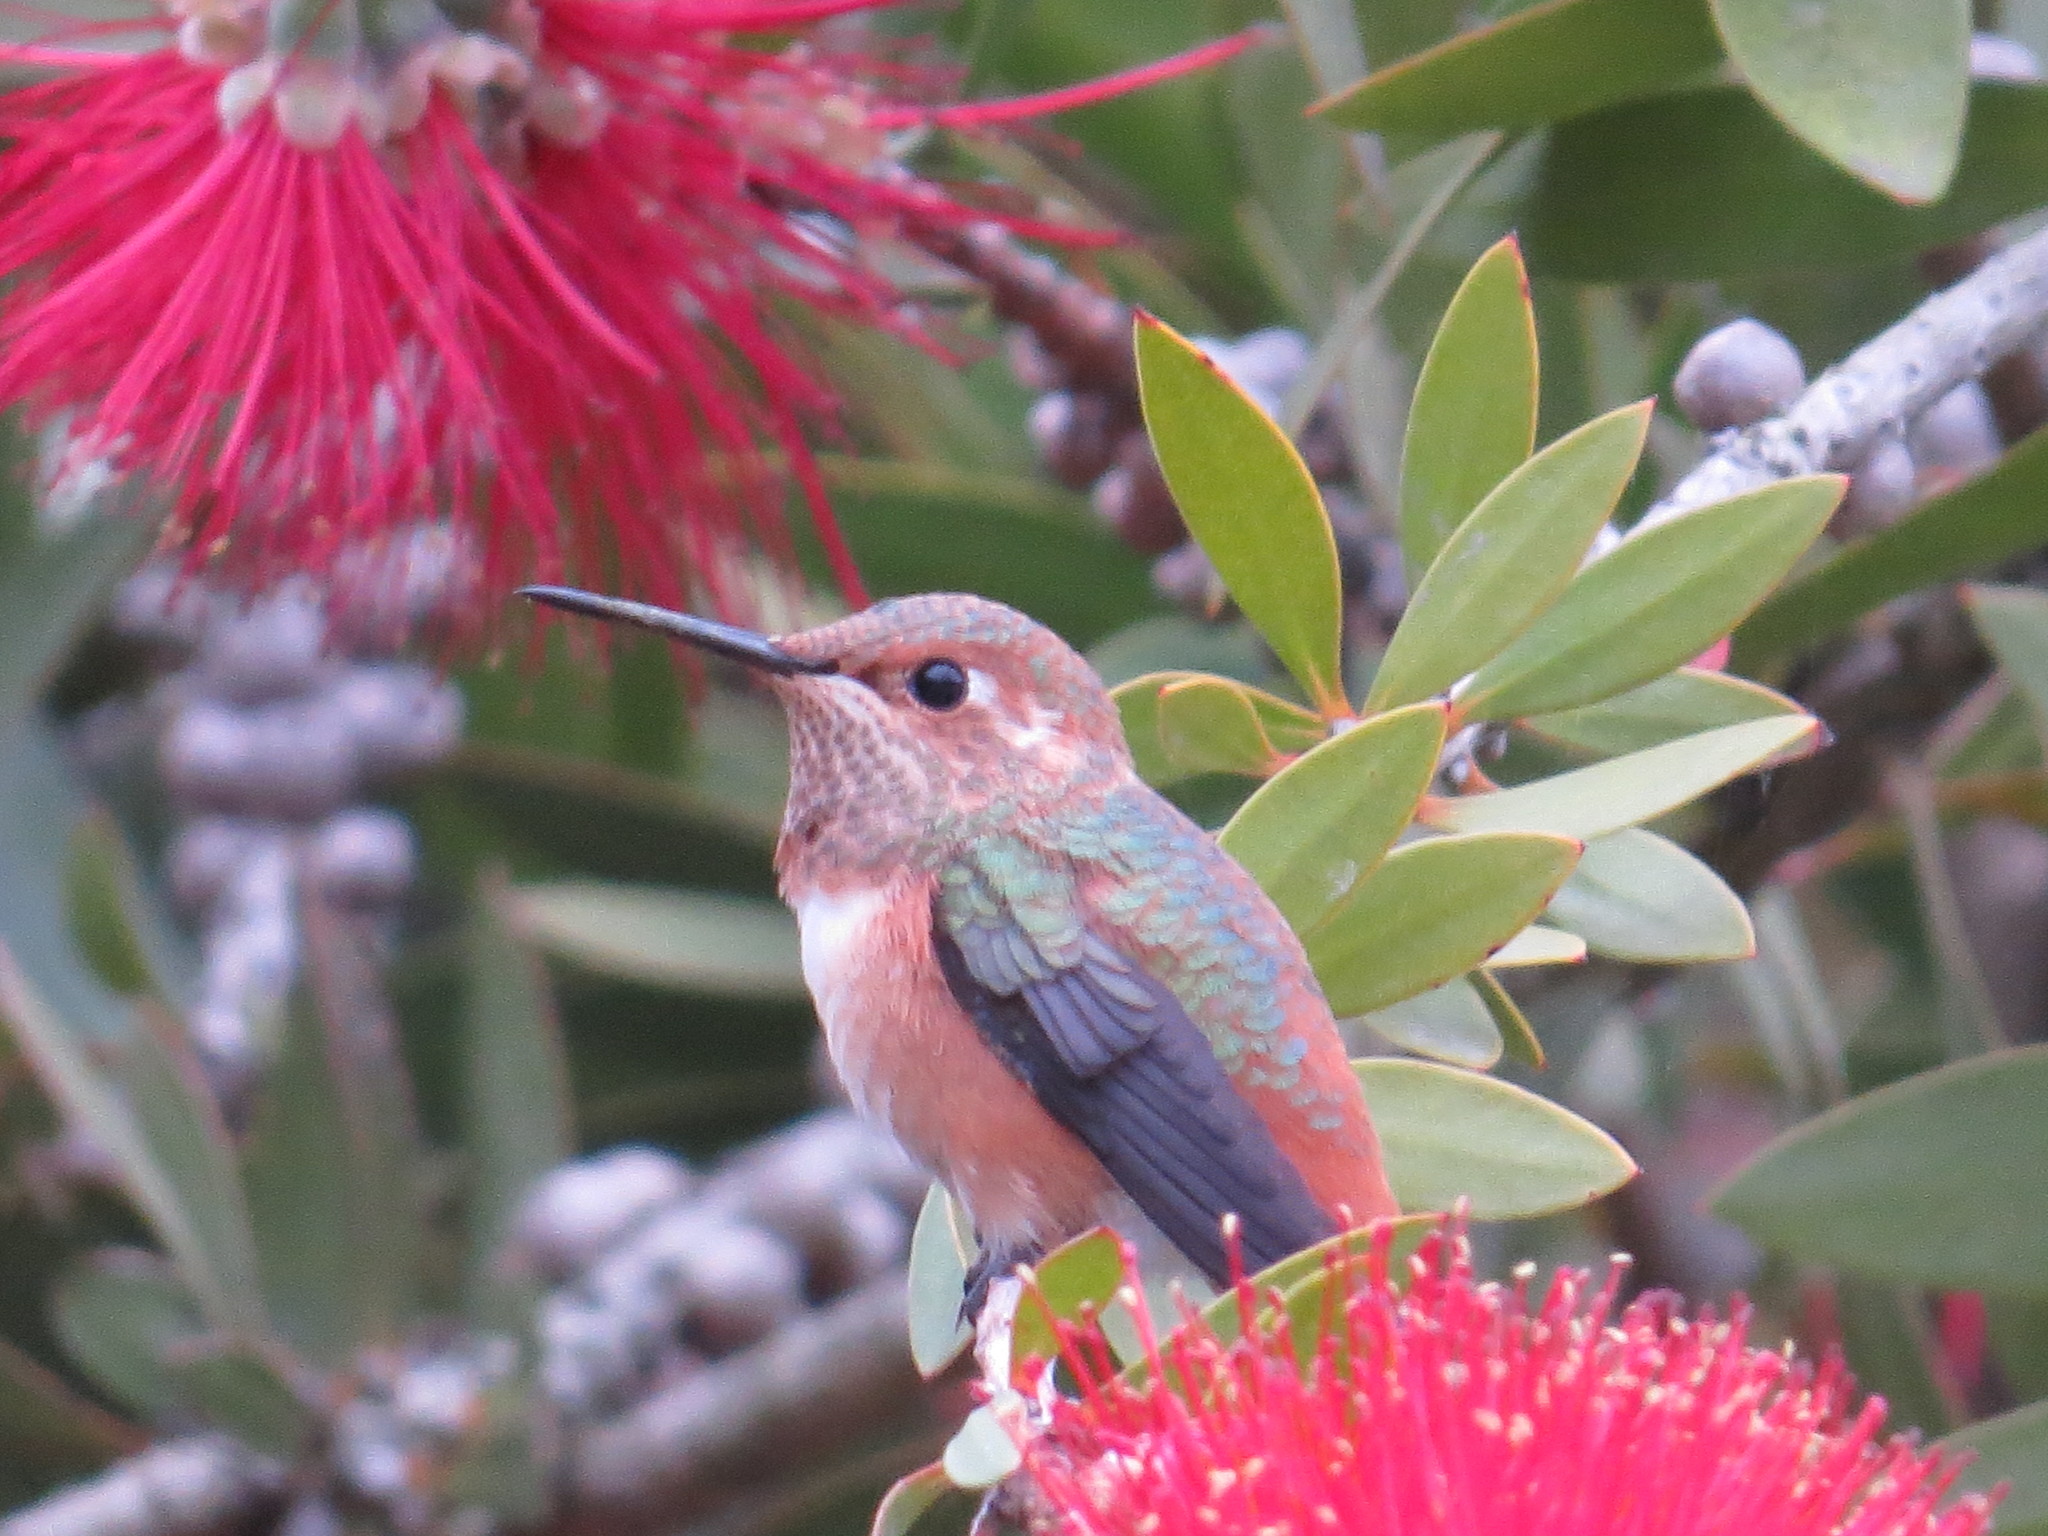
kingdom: Animalia
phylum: Chordata
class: Aves
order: Apodiformes
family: Trochilidae
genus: Selasphorus
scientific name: Selasphorus sasin
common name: Allen's hummingbird
